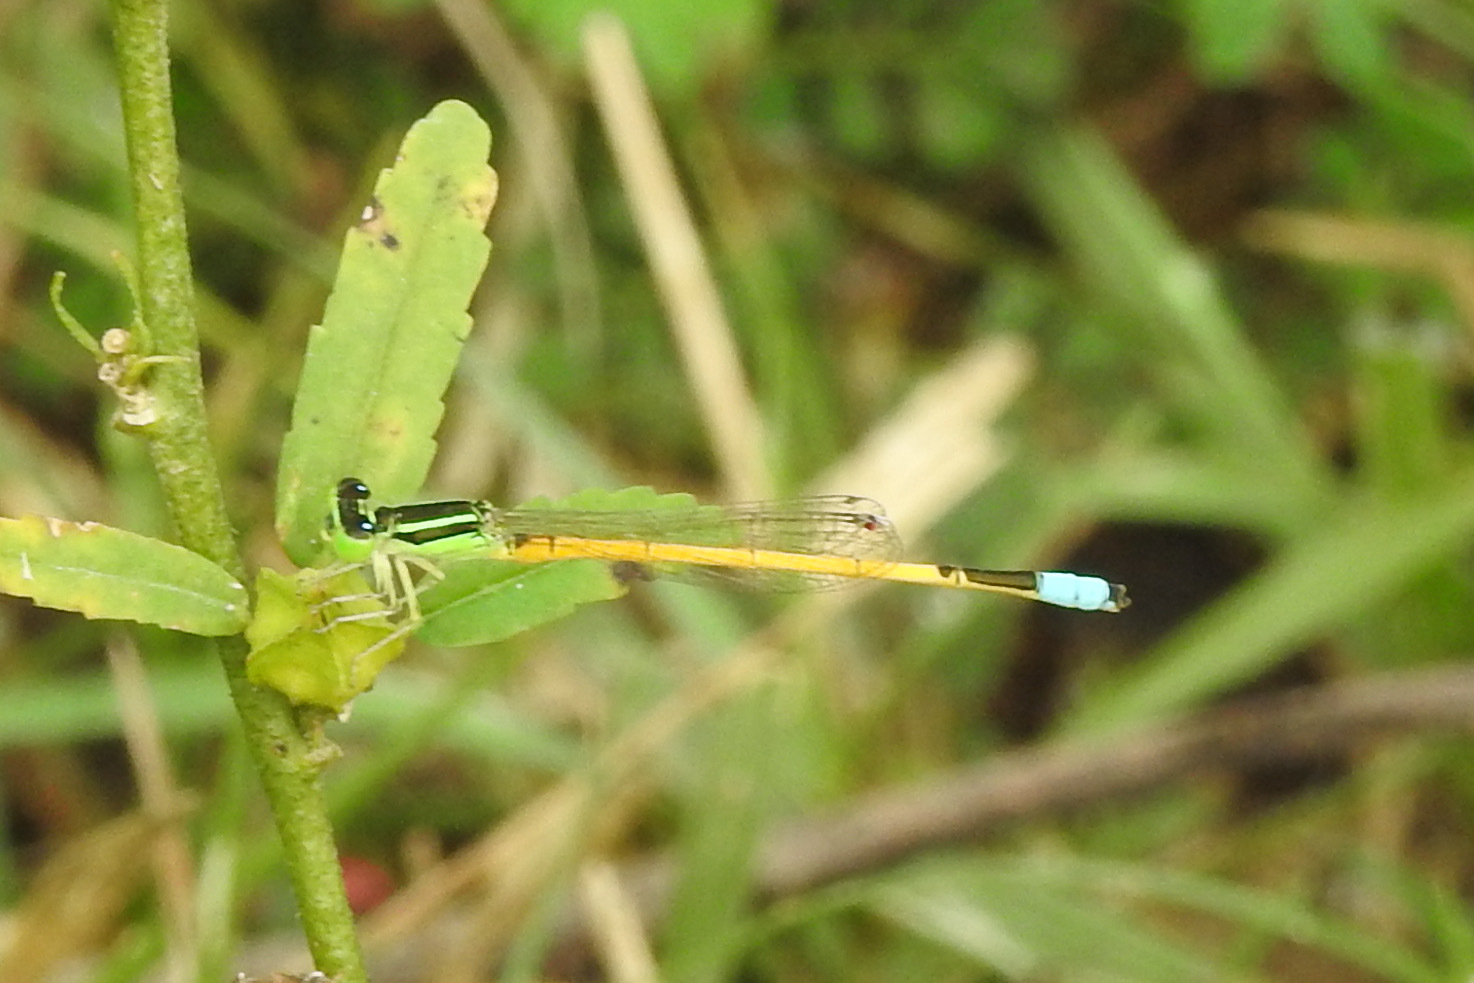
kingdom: Animalia
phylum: Arthropoda
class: Insecta
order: Odonata
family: Coenagrionidae
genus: Ischnura
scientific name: Ischnura rubilio
